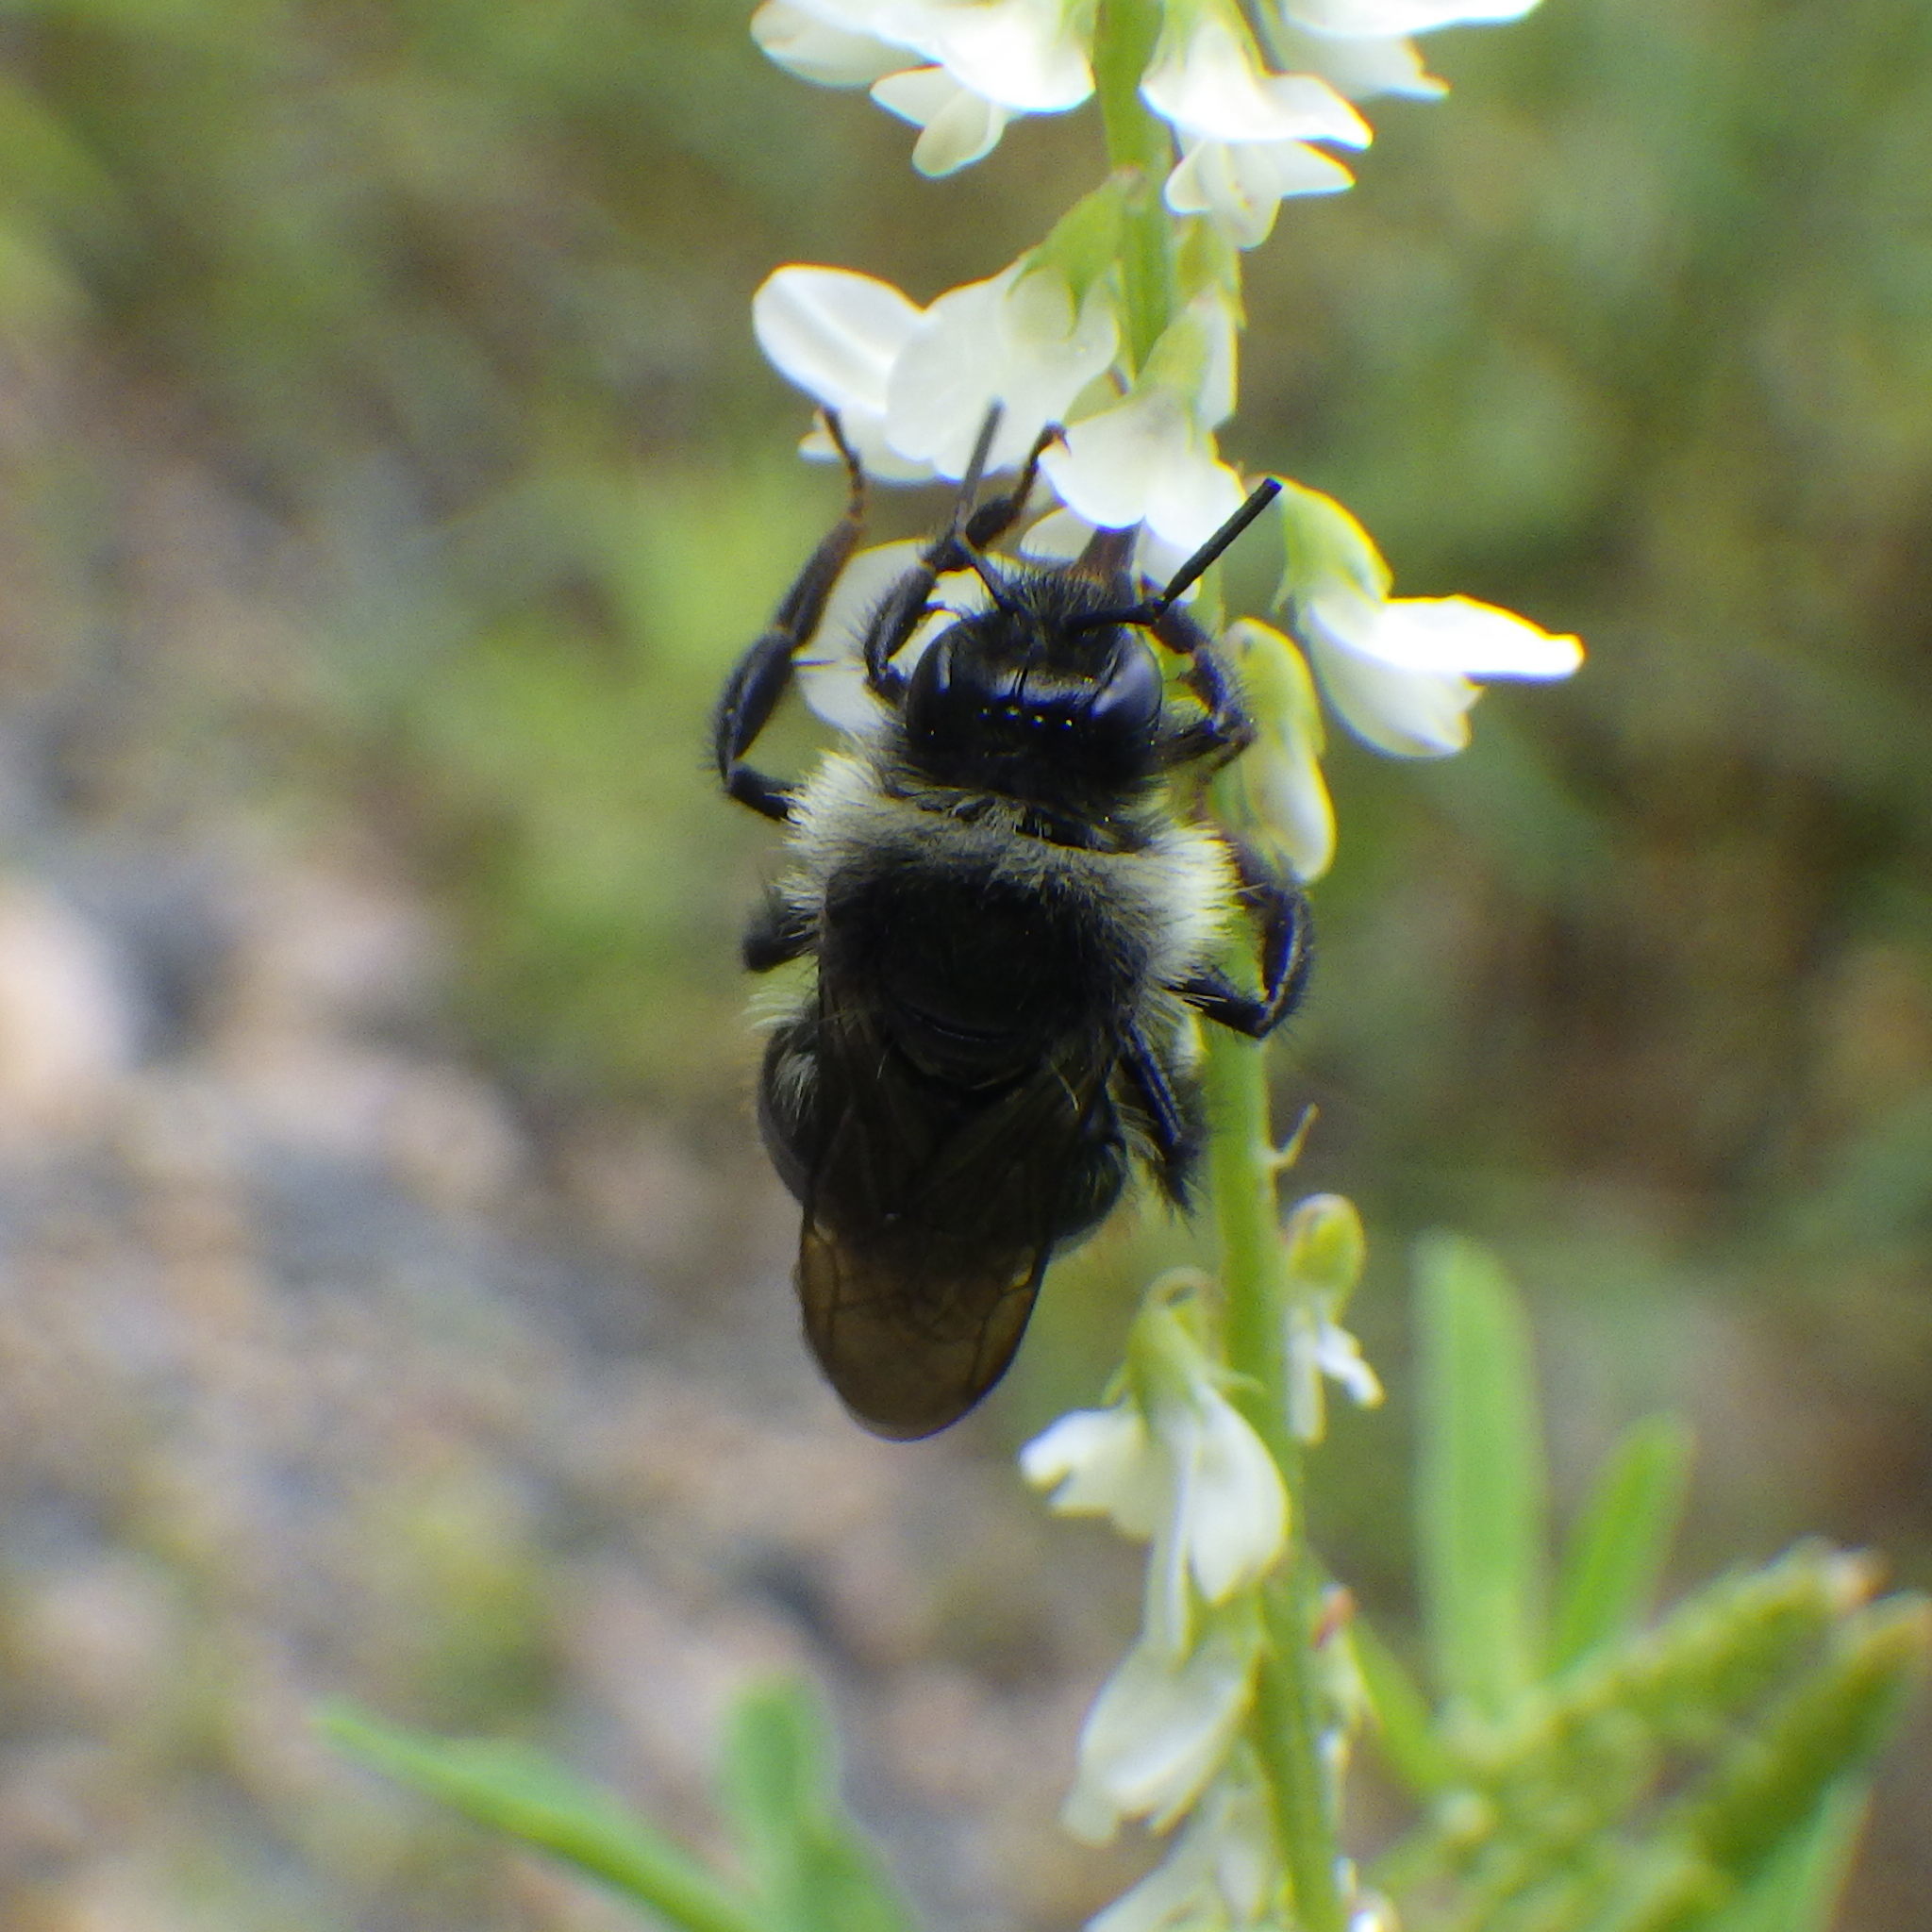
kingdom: Animalia
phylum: Arthropoda
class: Insecta
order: Hymenoptera
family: Apidae
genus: Bombus
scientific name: Bombus ternarius
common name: Tri-colored bumble bee
